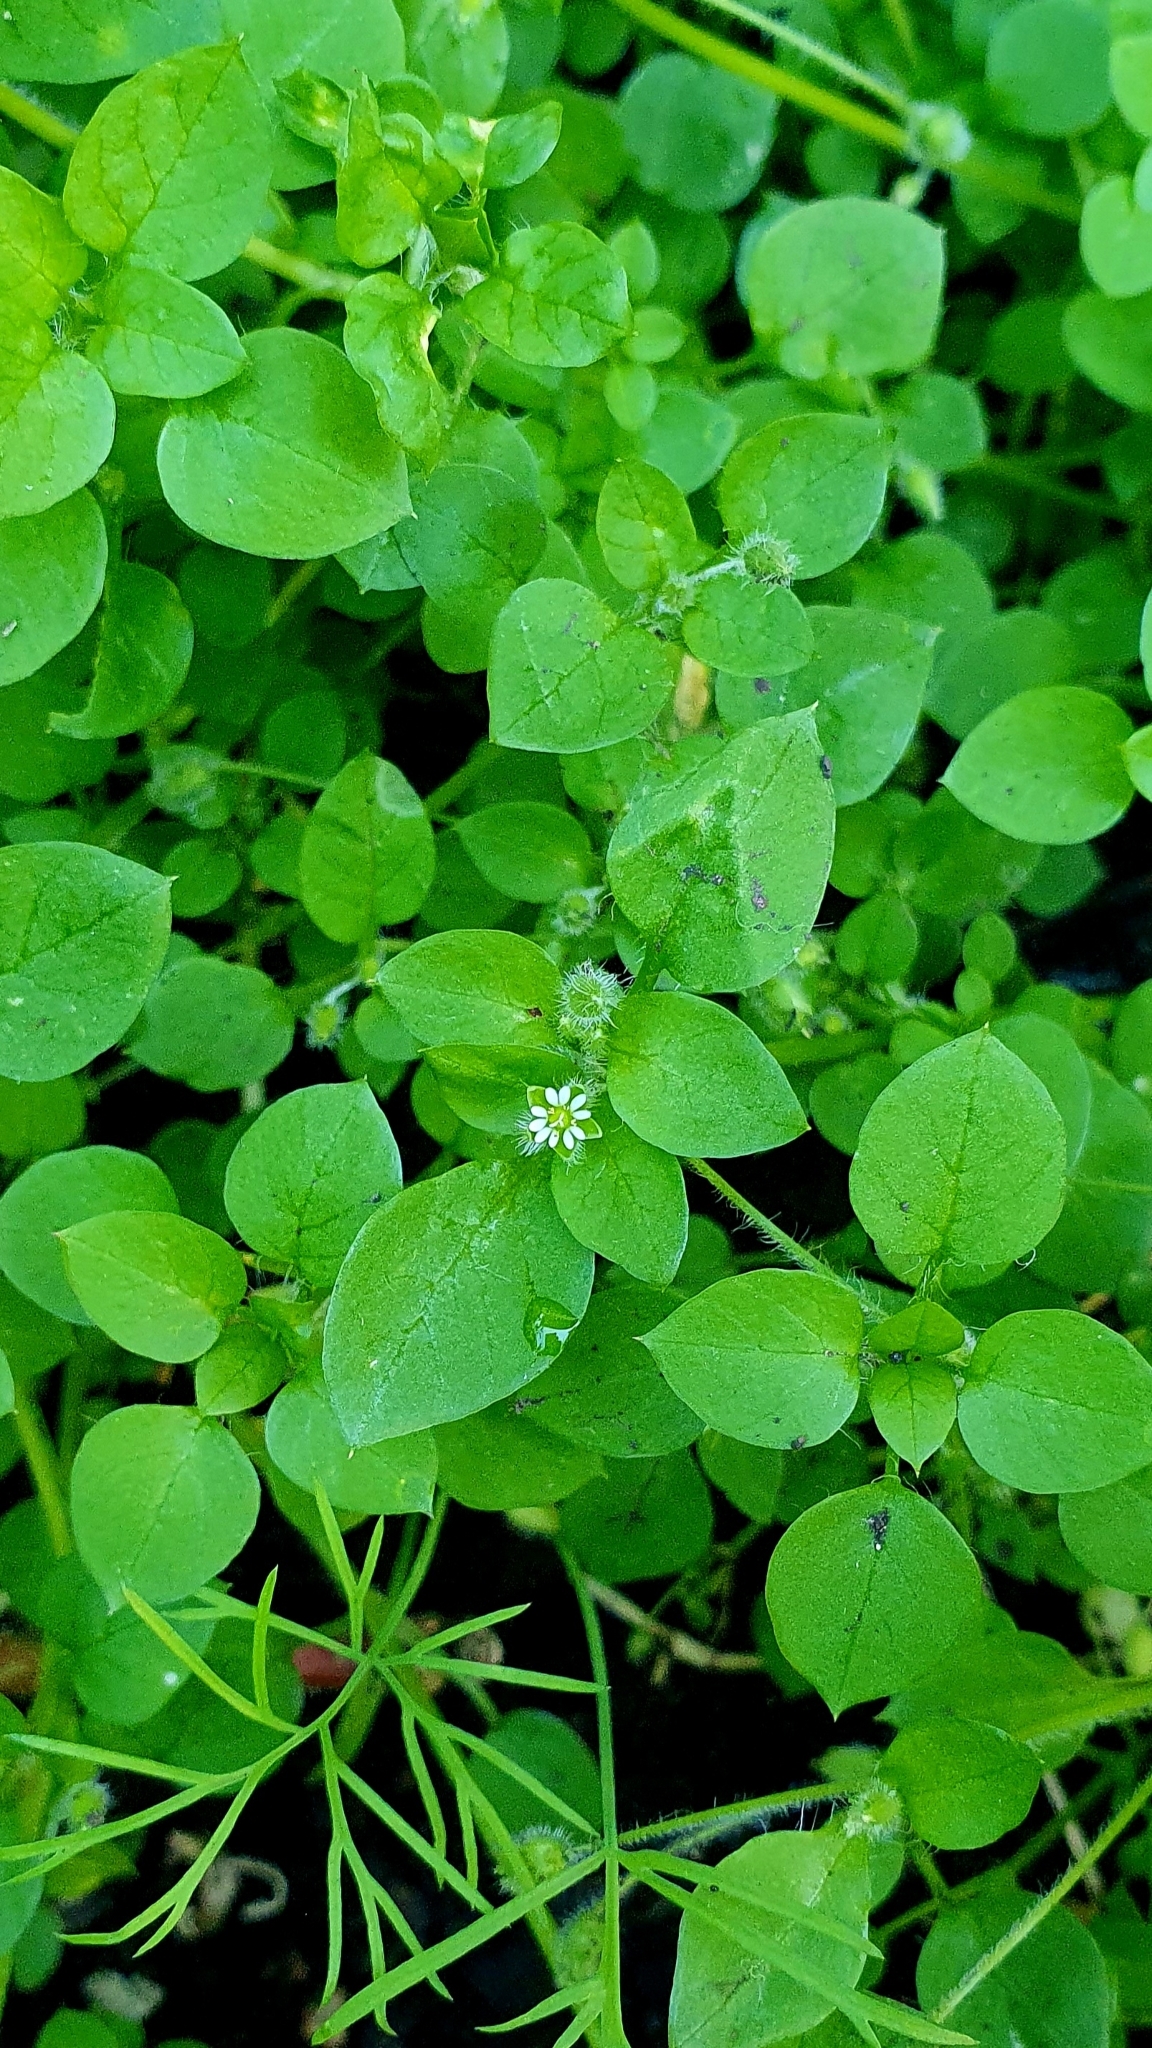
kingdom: Plantae
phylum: Tracheophyta
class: Magnoliopsida
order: Caryophyllales
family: Caryophyllaceae
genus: Stellaria
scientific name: Stellaria media
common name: Common chickweed
